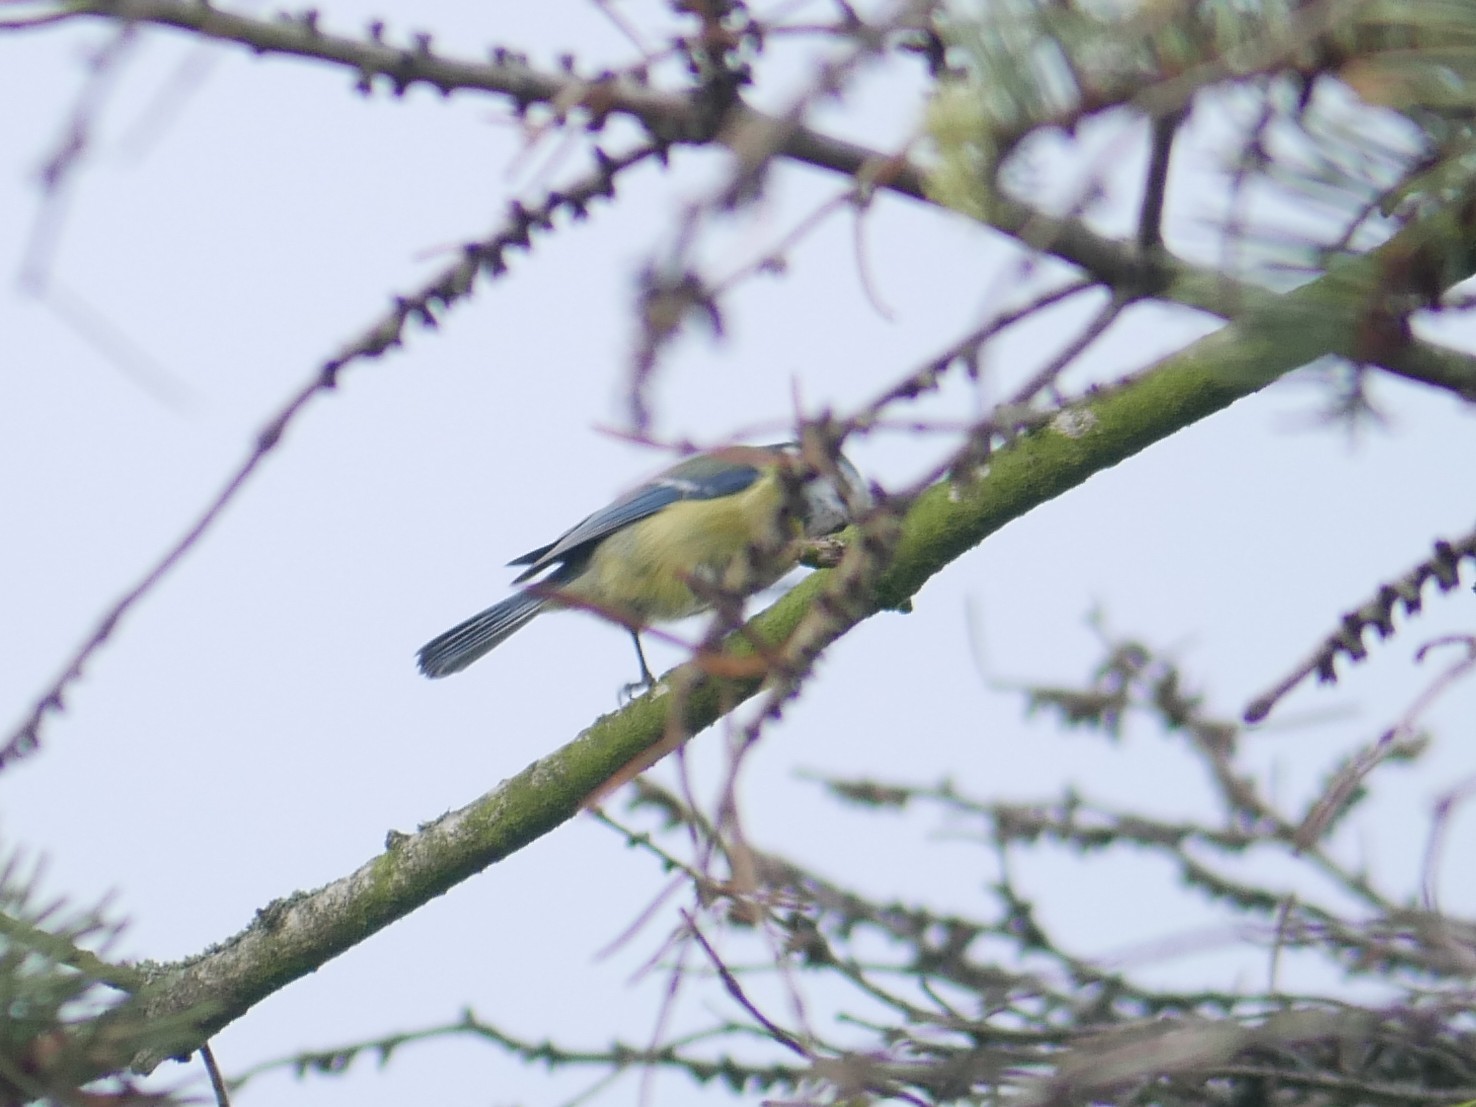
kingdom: Animalia
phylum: Chordata
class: Aves
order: Passeriformes
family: Paridae
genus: Cyanistes
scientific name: Cyanistes caeruleus
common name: Eurasian blue tit
